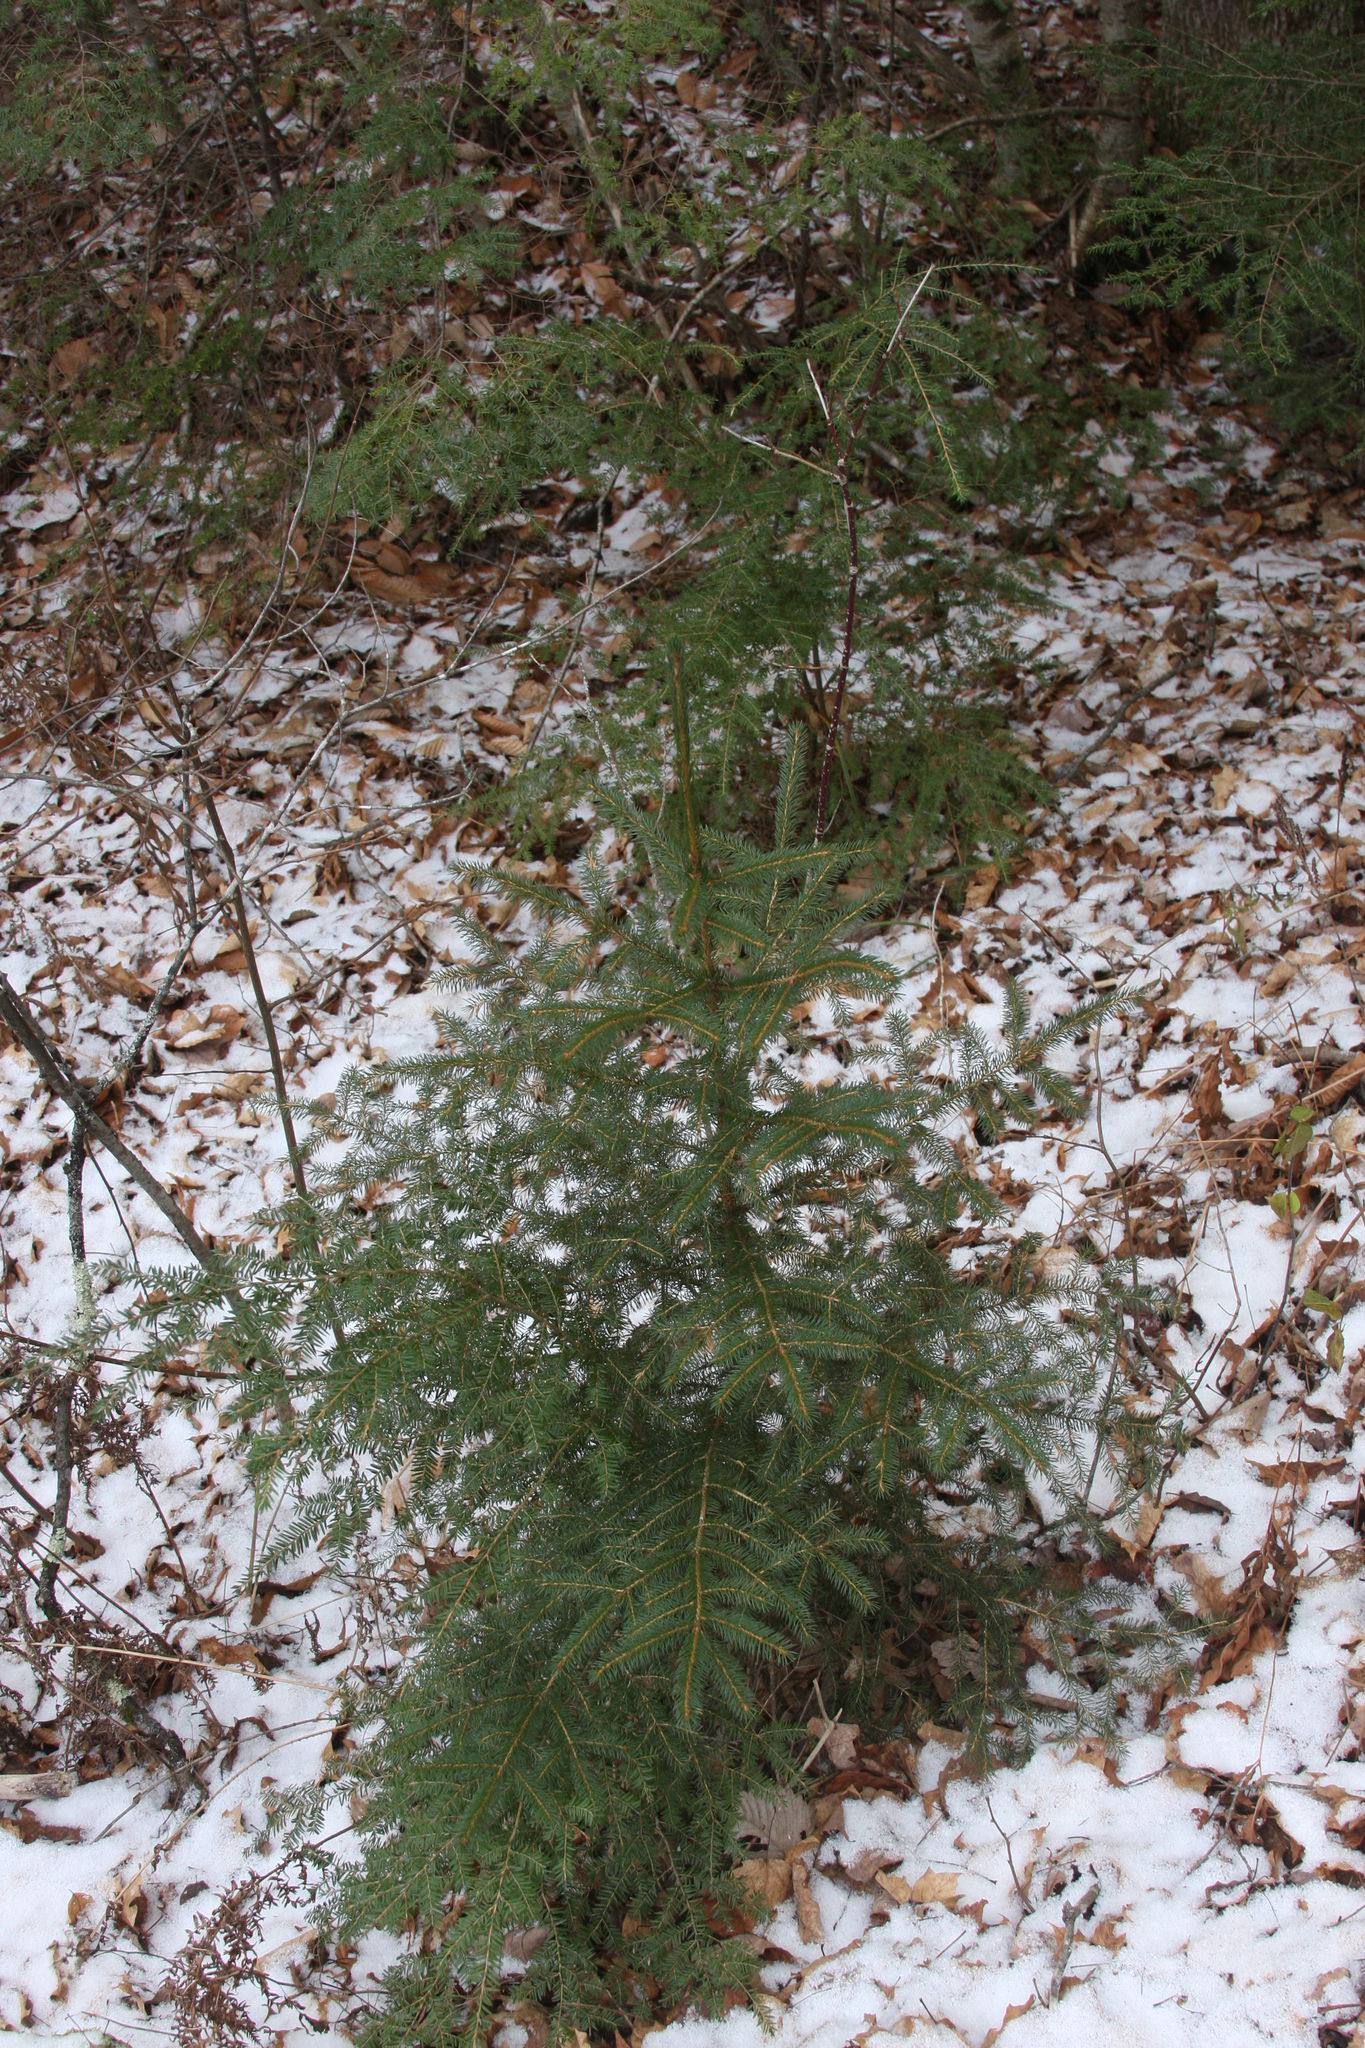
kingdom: Plantae
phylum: Tracheophyta
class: Pinopsida
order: Pinales
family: Pinaceae
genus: Picea
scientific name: Picea rubens
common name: Red spruce
